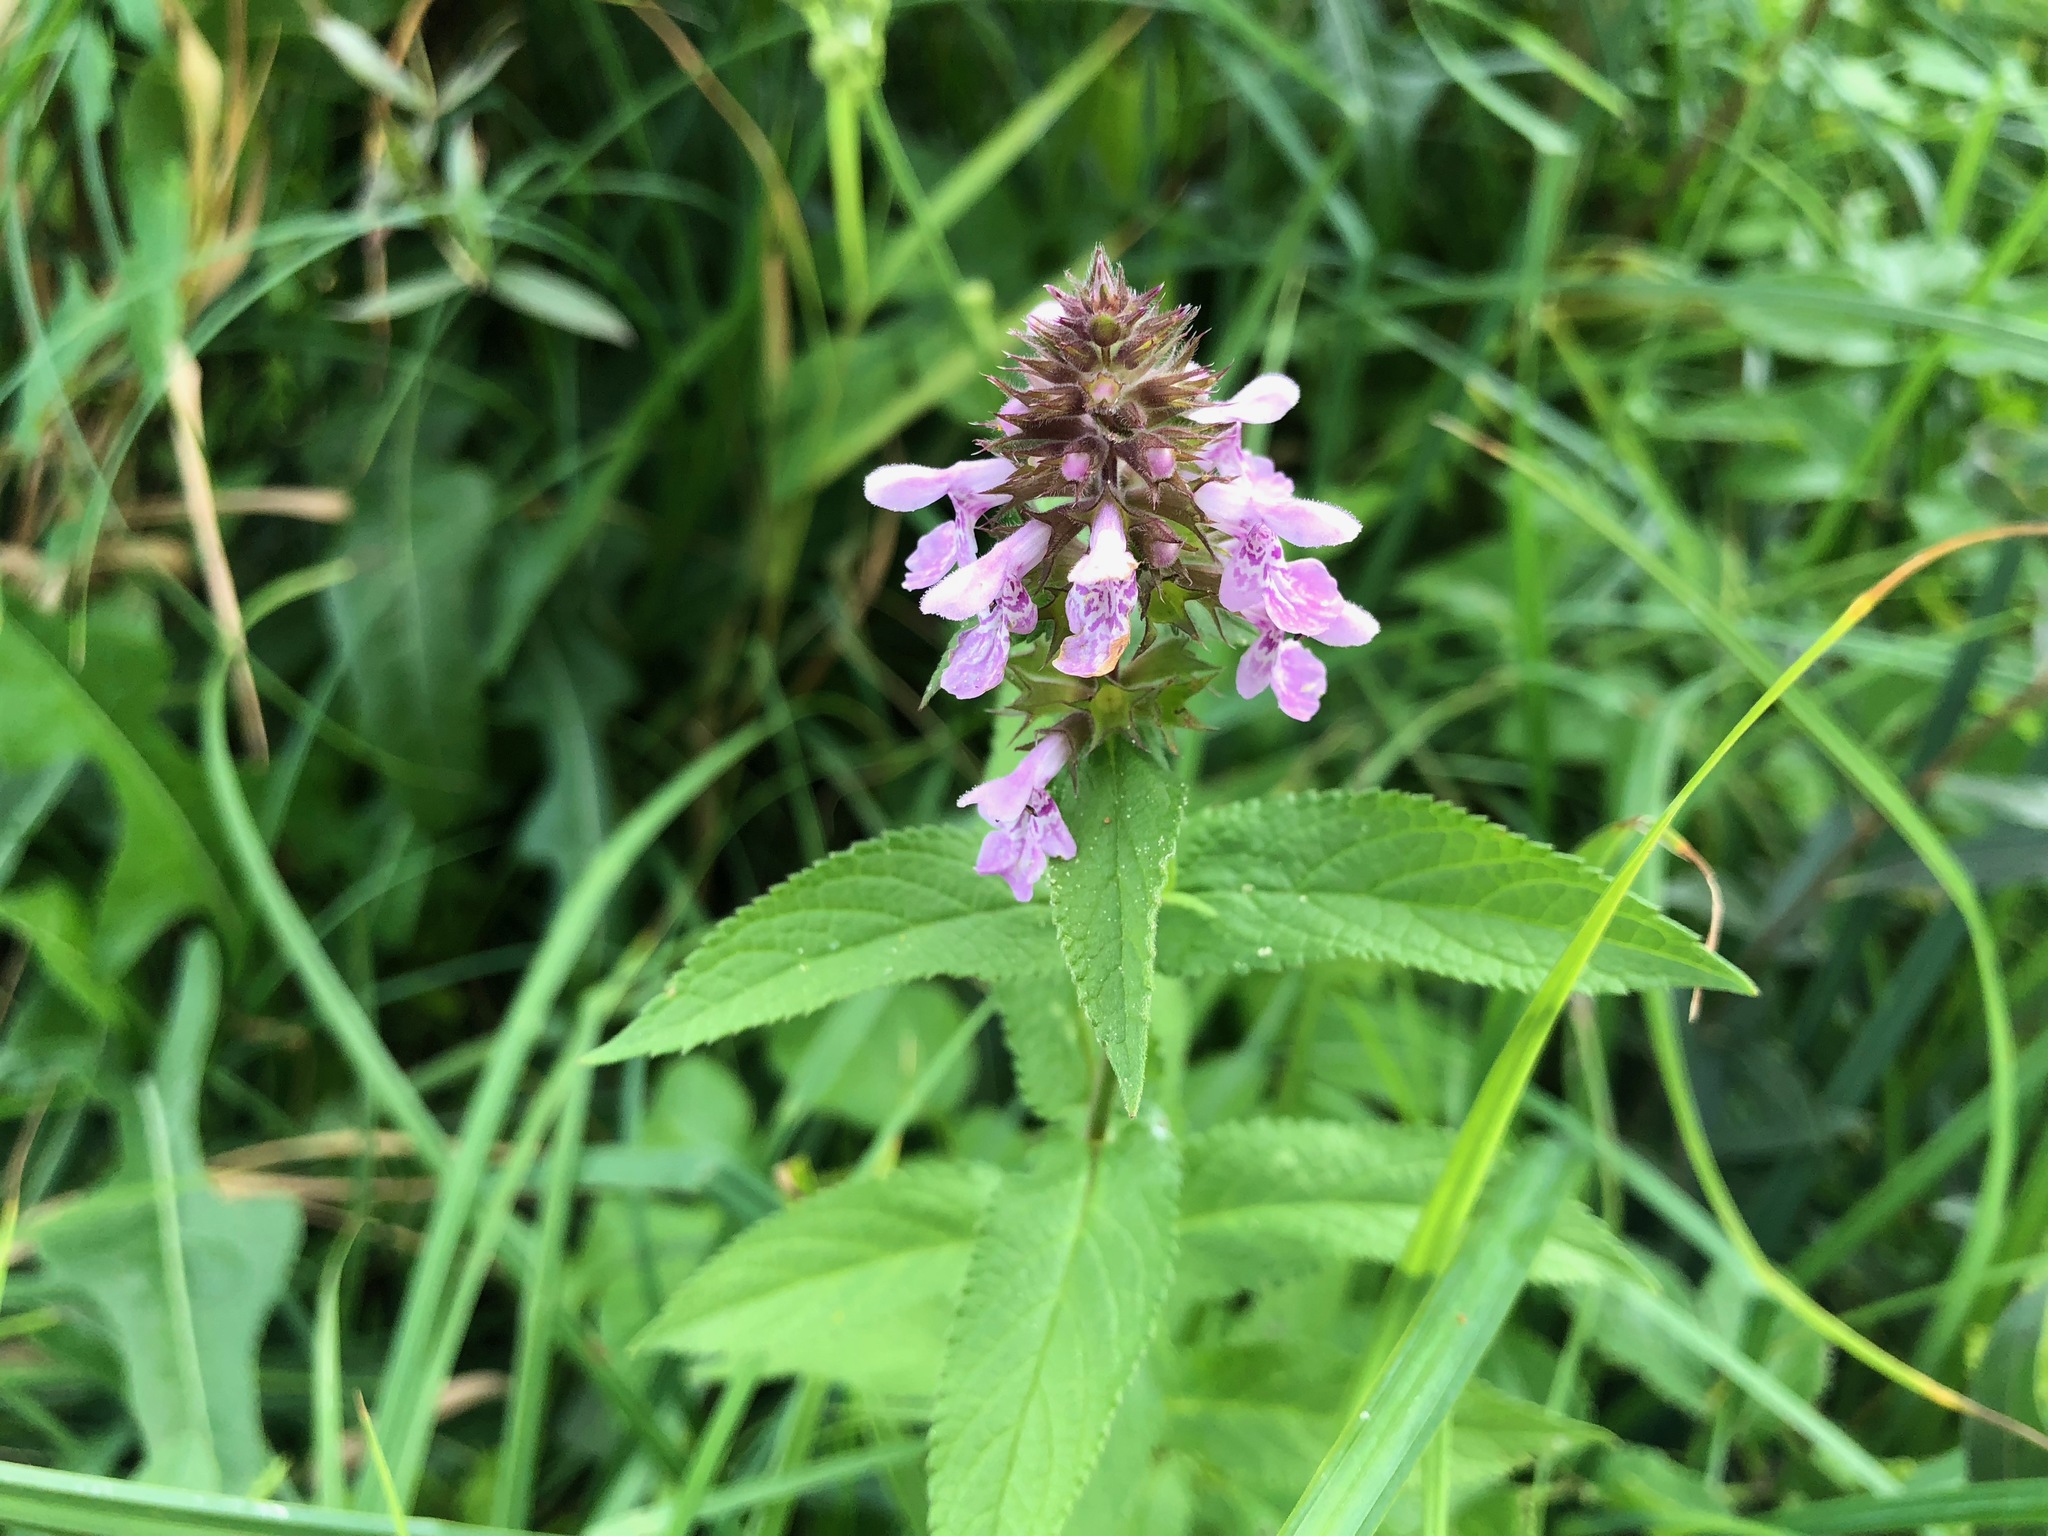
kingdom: Plantae
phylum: Tracheophyta
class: Magnoliopsida
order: Lamiales
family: Lamiaceae
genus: Stachys
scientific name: Stachys palustris
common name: Marsh woundwort
